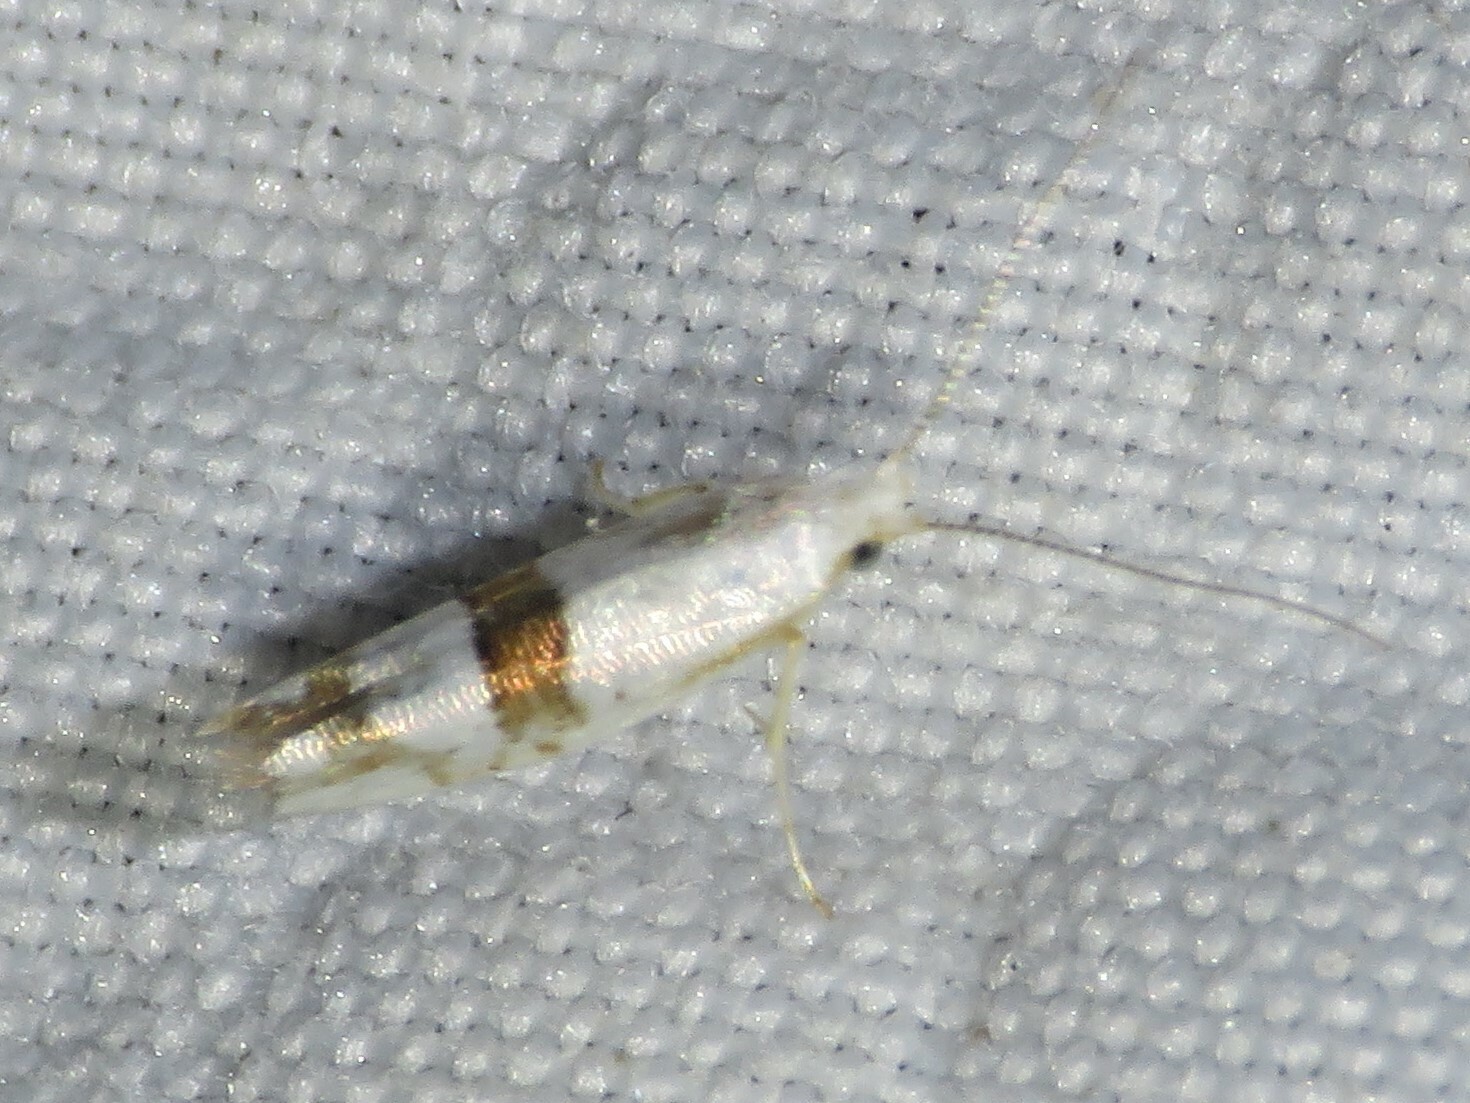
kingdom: Animalia
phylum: Arthropoda
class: Insecta
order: Lepidoptera
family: Argyresthiidae
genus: Argyresthia
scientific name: Argyresthia oreasella
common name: Cherry shoot borer moth
